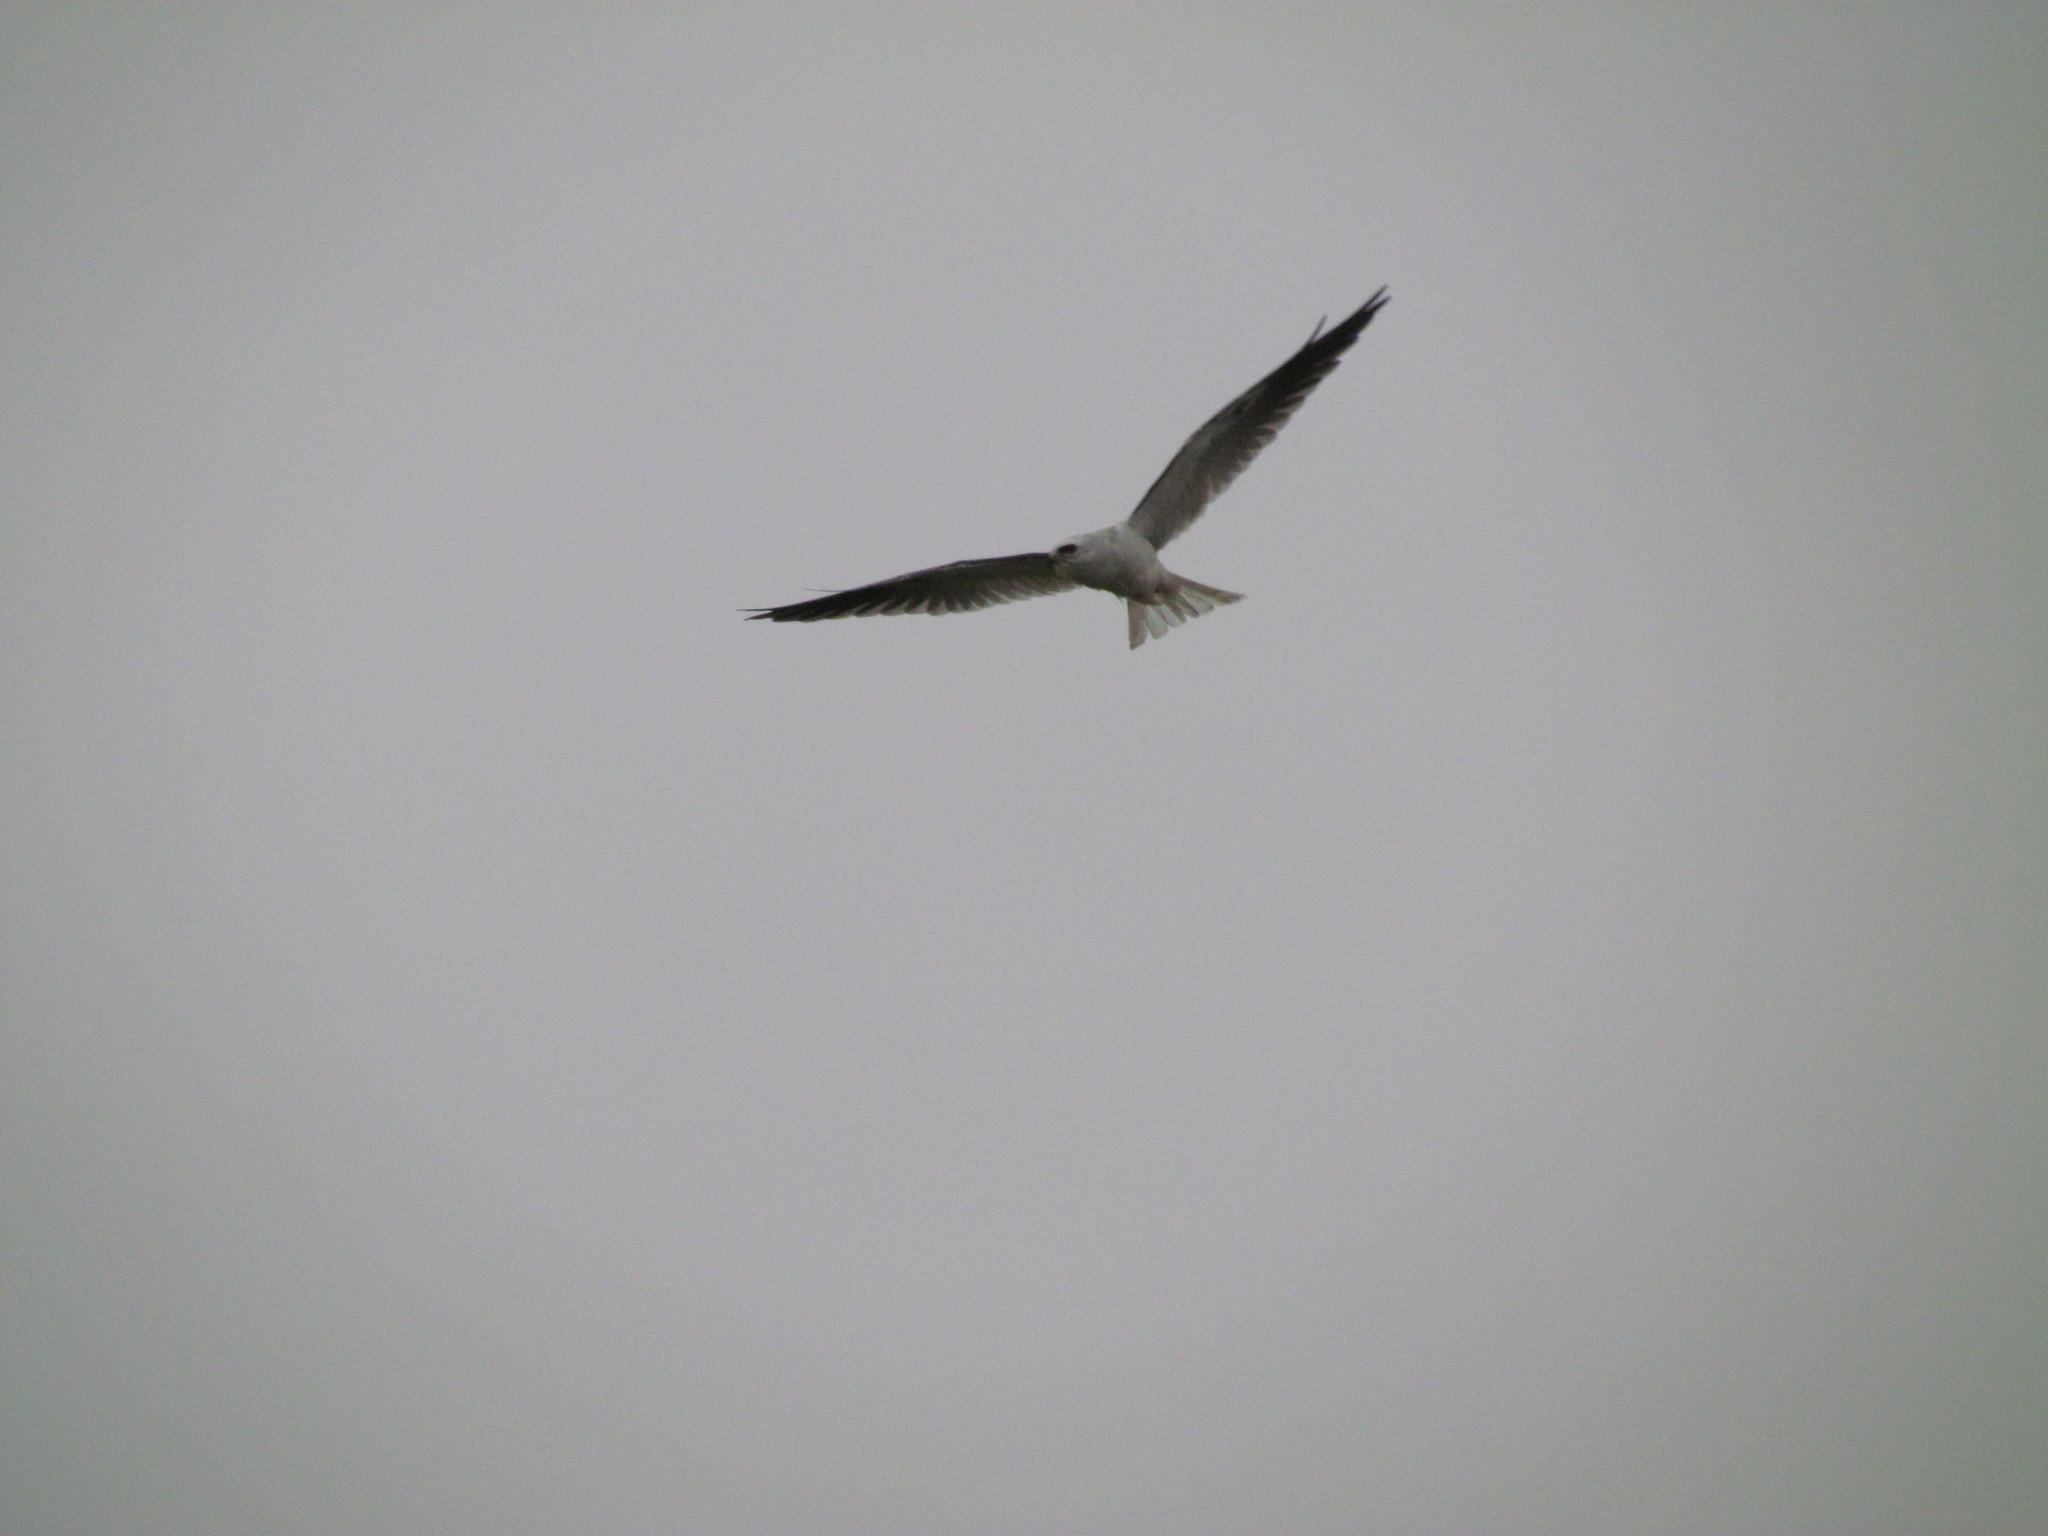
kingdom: Animalia
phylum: Chordata
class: Aves
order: Accipitriformes
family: Accipitridae
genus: Elanus
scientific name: Elanus leucurus
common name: White-tailed kite
